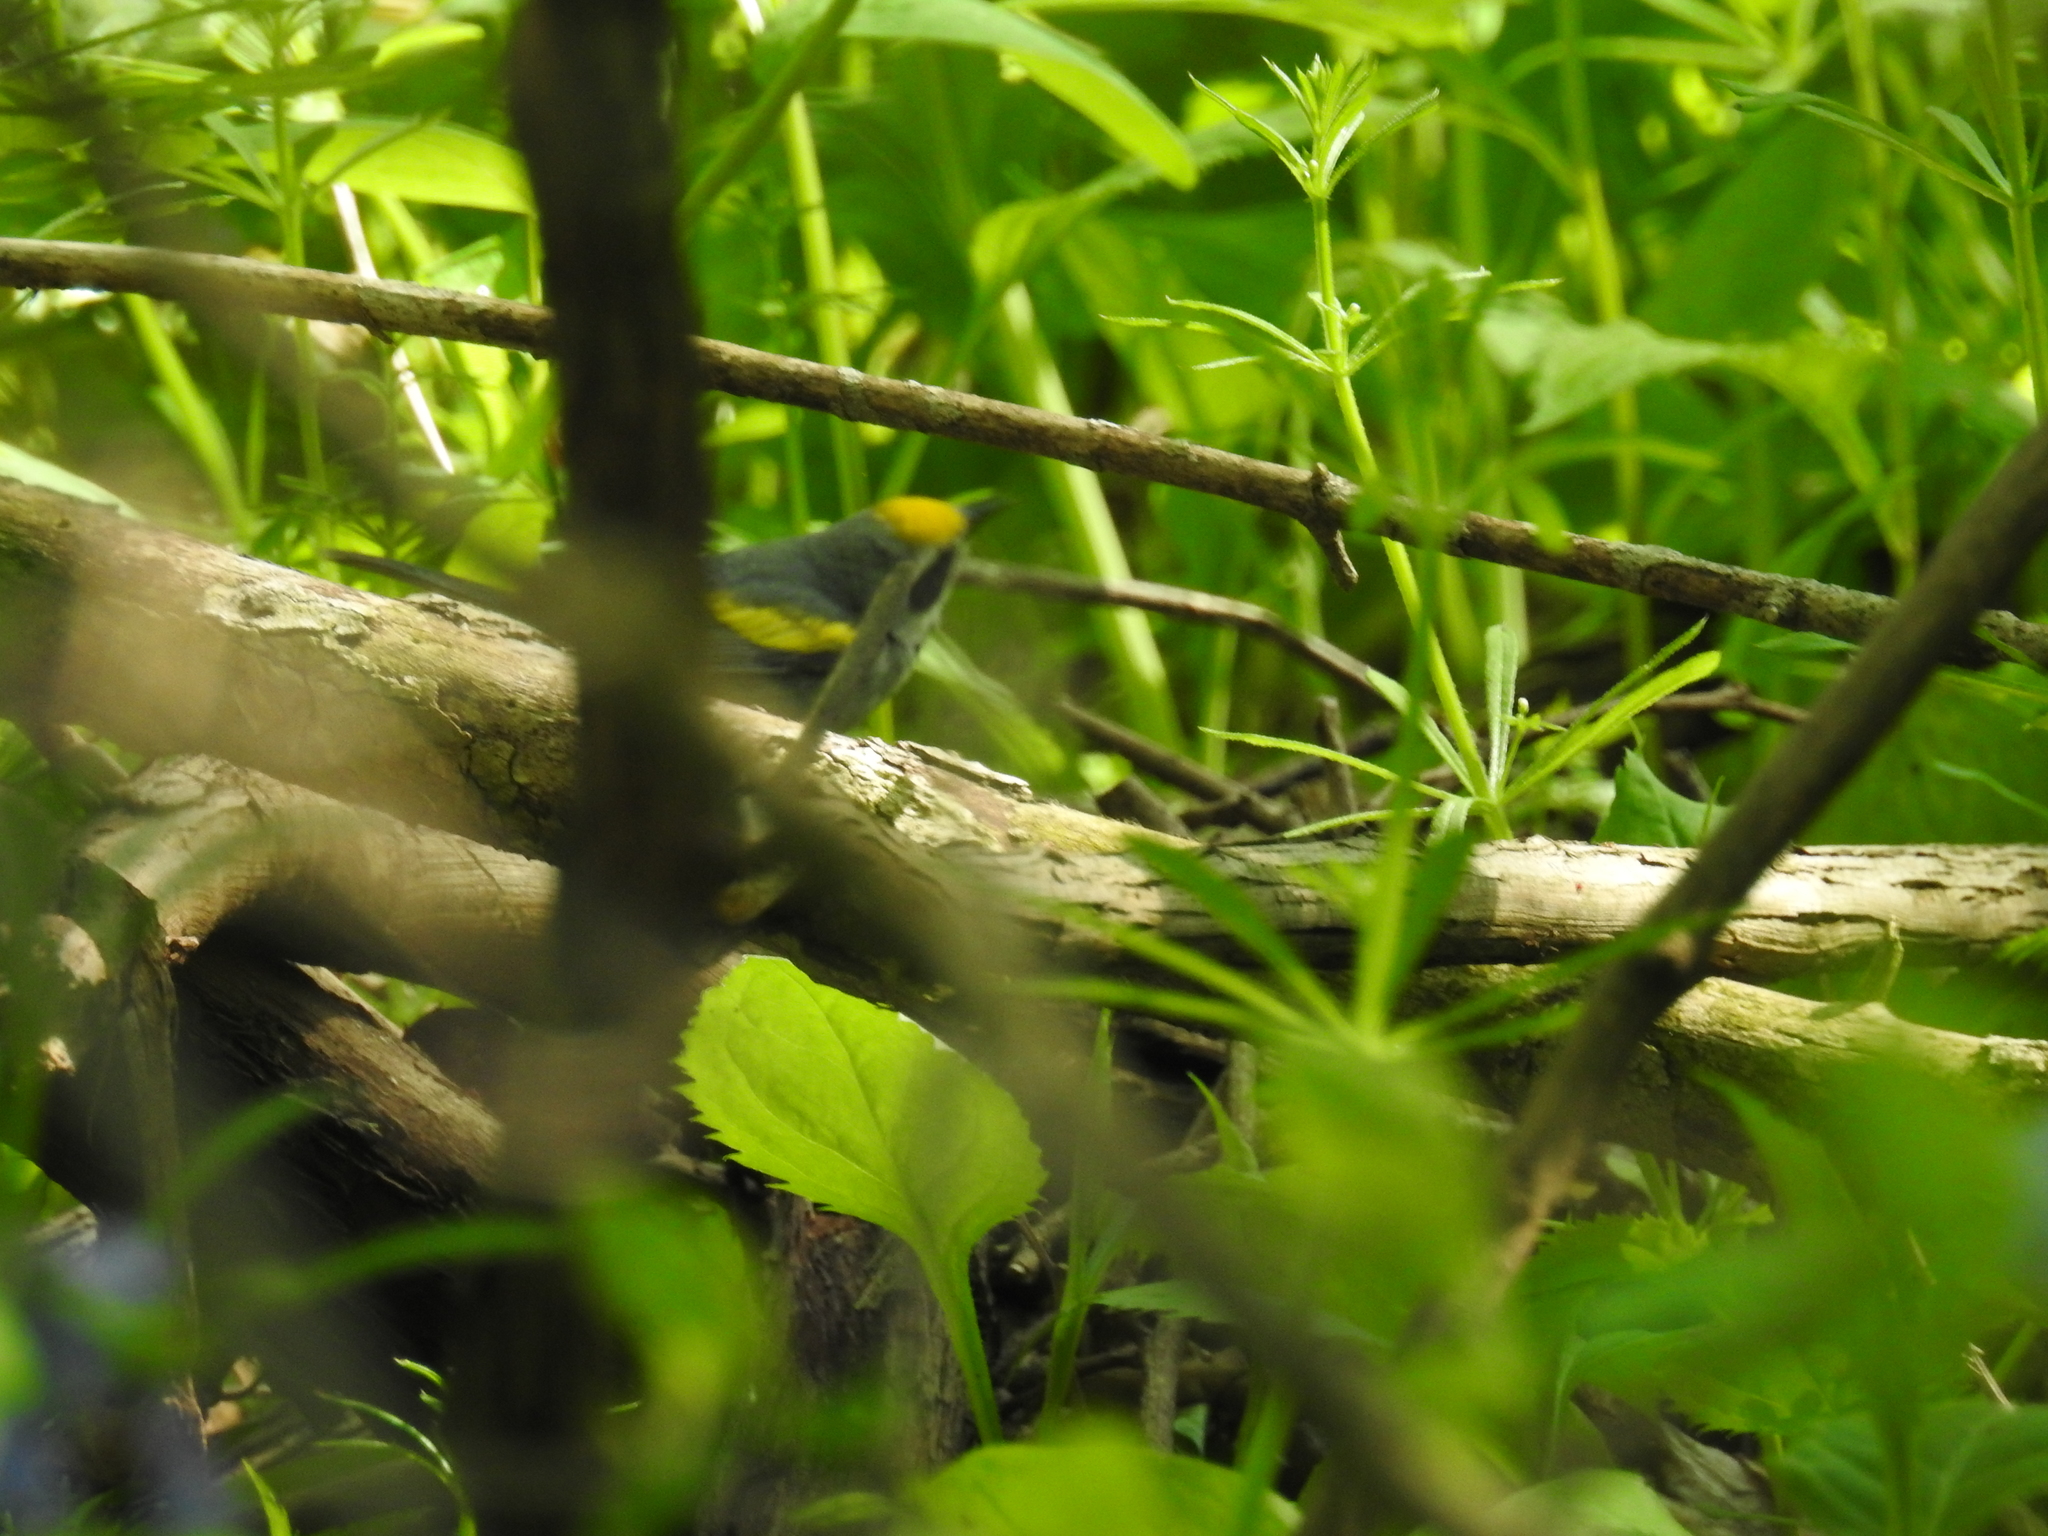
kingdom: Animalia
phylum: Chordata
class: Aves
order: Passeriformes
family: Parulidae
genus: Vermivora
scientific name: Vermivora chrysoptera
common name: Golden-winged warbler
